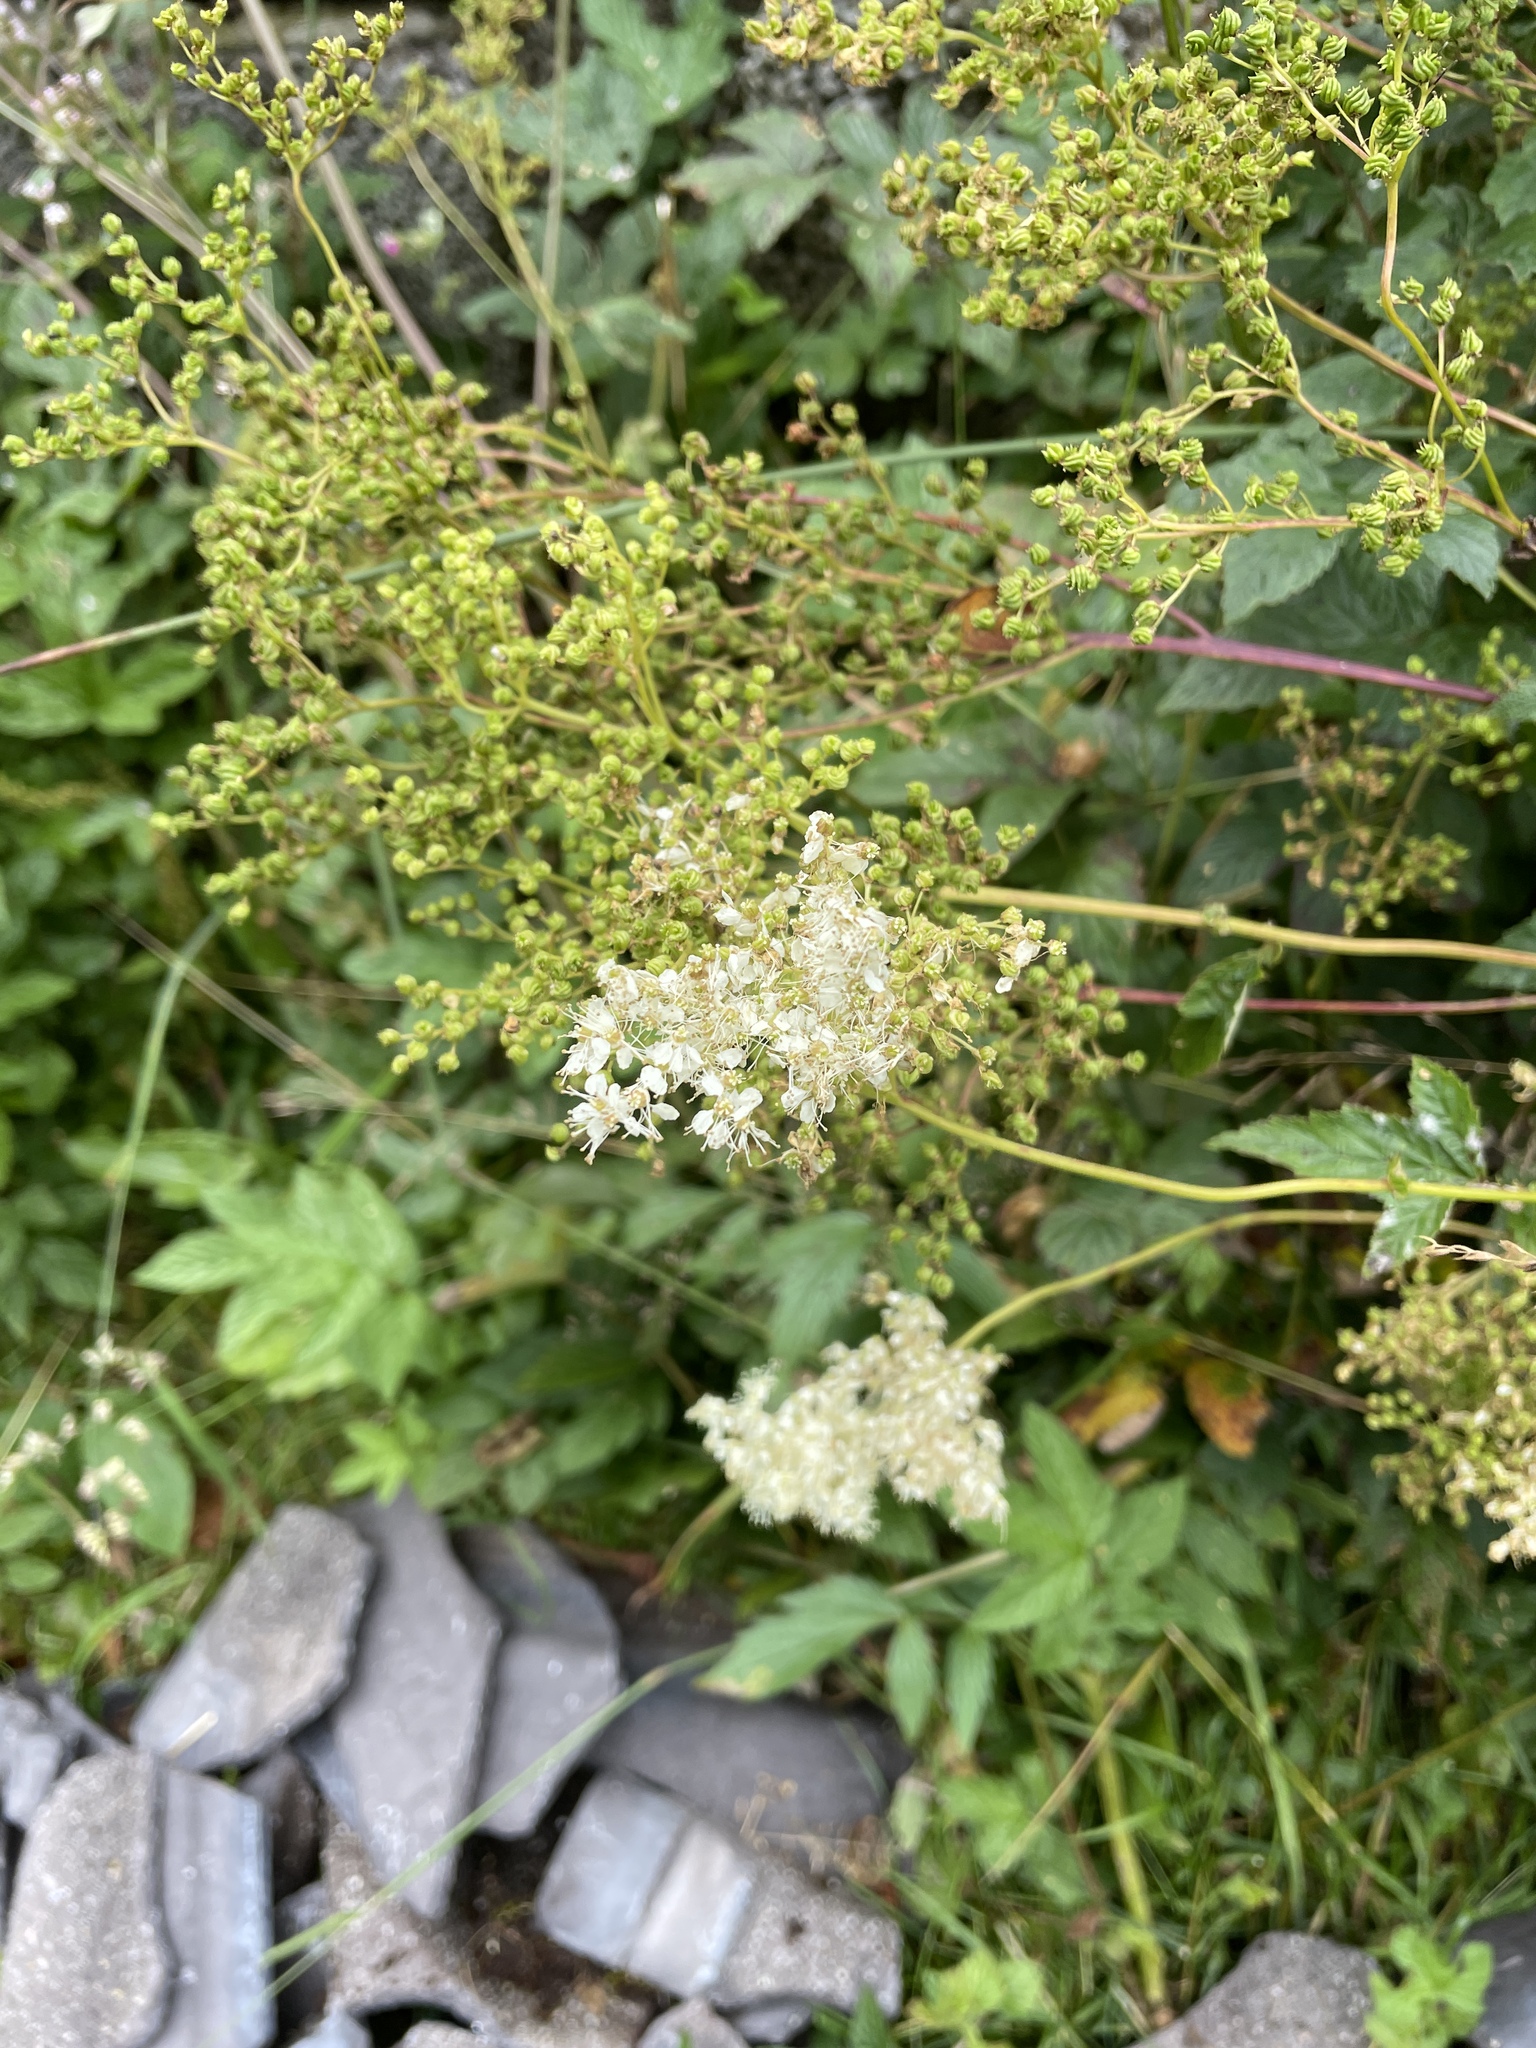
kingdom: Plantae
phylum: Tracheophyta
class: Magnoliopsida
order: Rosales
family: Rosaceae
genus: Filipendula
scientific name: Filipendula ulmaria
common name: Meadowsweet
